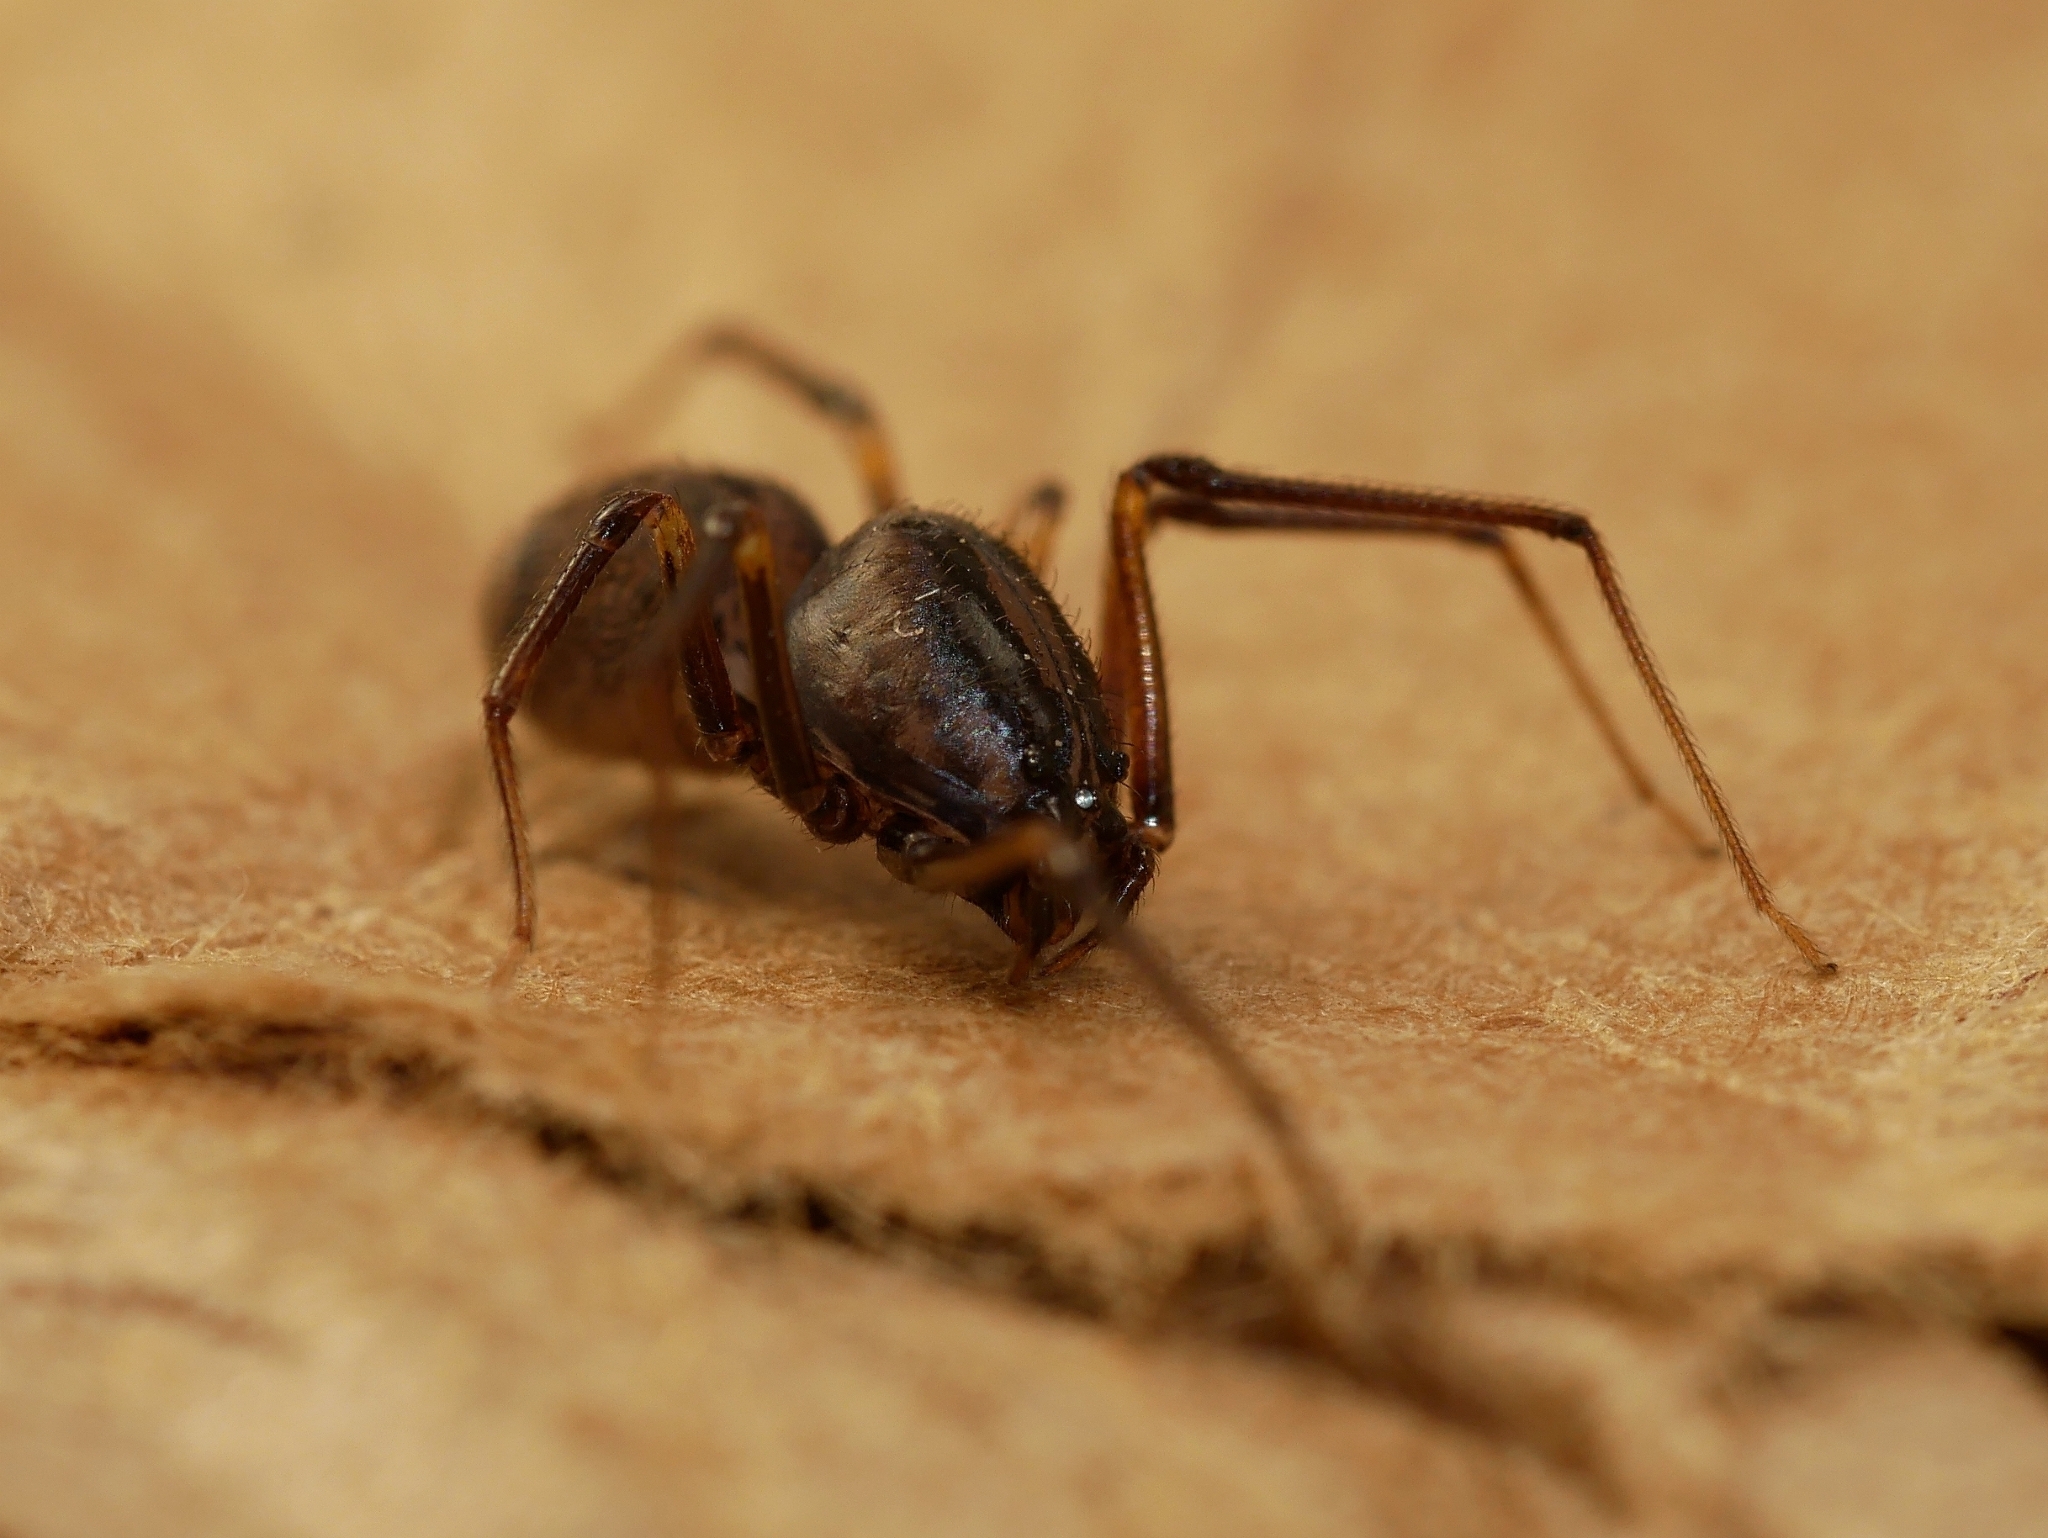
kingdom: Animalia
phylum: Arthropoda
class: Arachnida
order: Araneae
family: Scytodidae
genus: Dictis
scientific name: Dictis striatipes
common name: Spider
